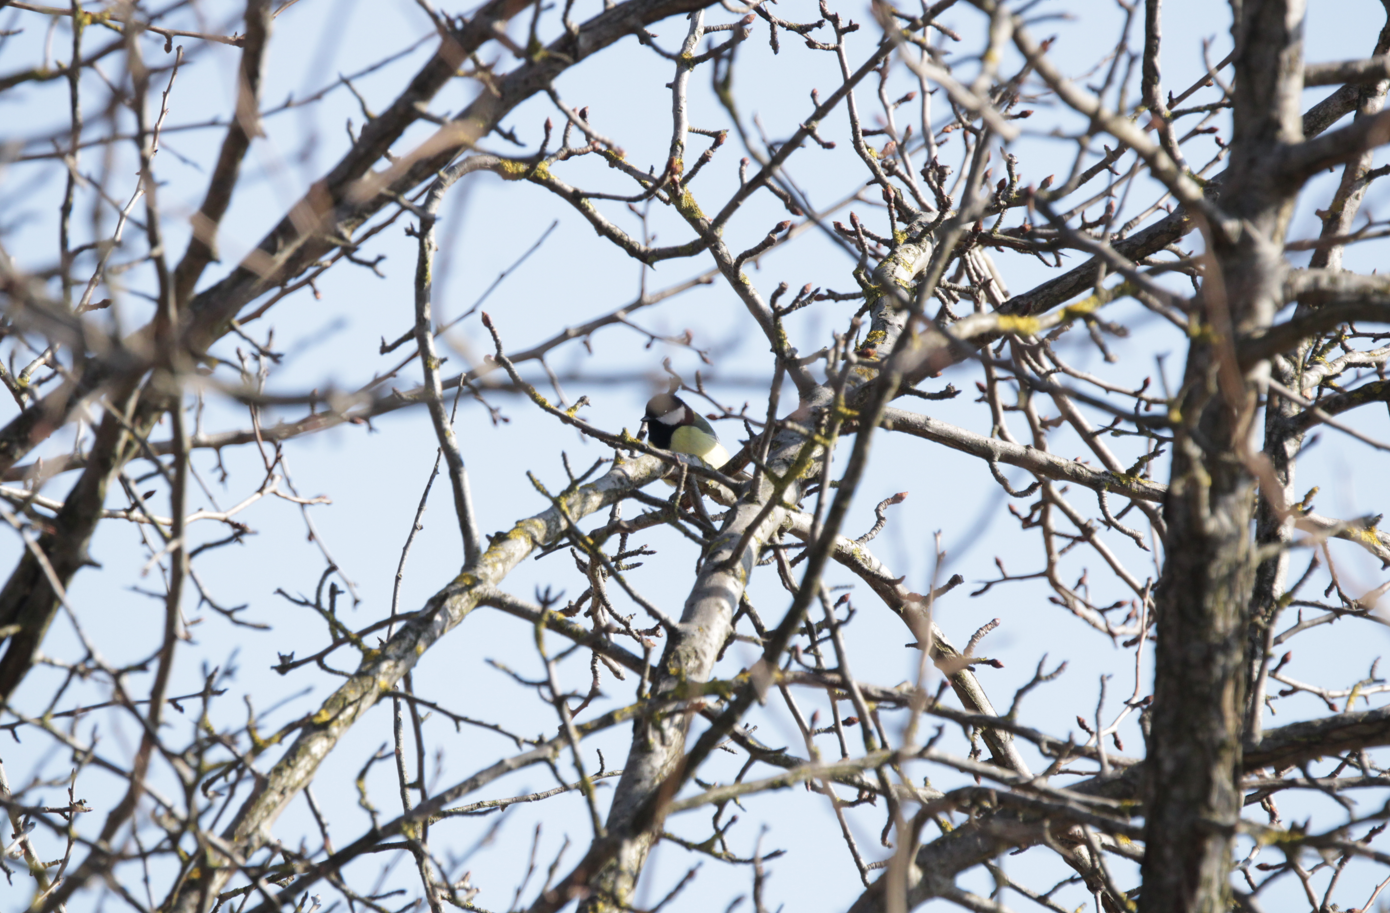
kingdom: Animalia
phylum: Chordata
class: Aves
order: Passeriformes
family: Paridae
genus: Parus
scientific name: Parus major
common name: Great tit
